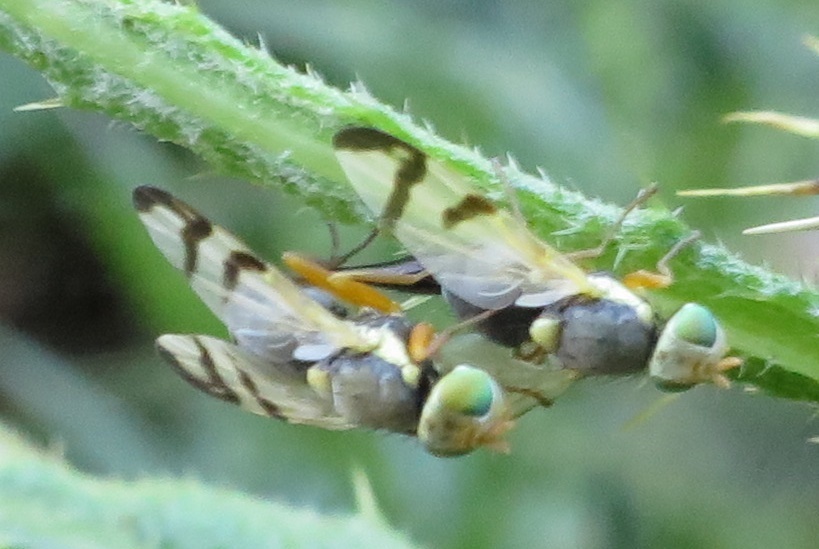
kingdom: Animalia
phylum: Arthropoda
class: Insecta
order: Diptera
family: Tephritidae
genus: Urophora
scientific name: Urophora stylata
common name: Fruit fly
